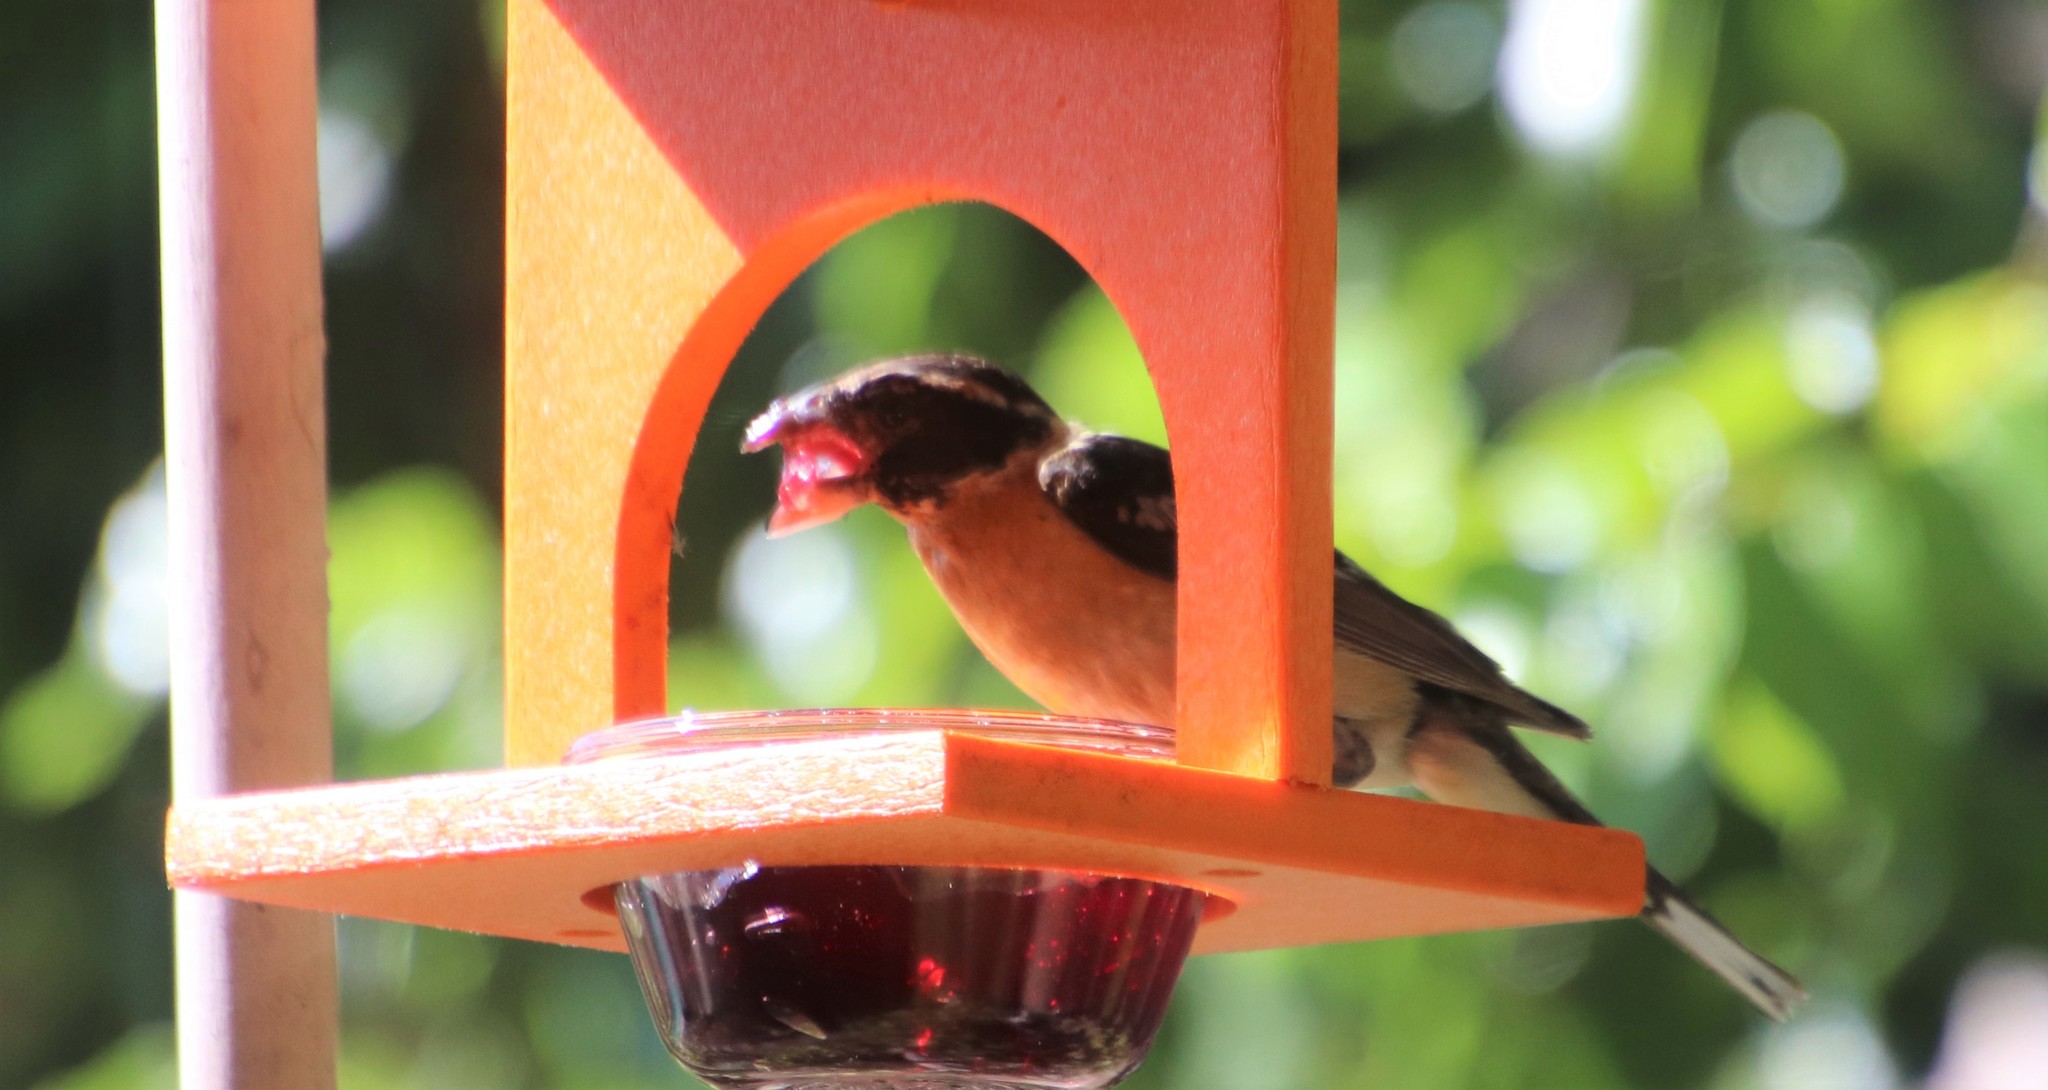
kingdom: Animalia
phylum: Chordata
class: Aves
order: Passeriformes
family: Cardinalidae
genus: Pheucticus
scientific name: Pheucticus melanocephalus
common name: Black-headed grosbeak
